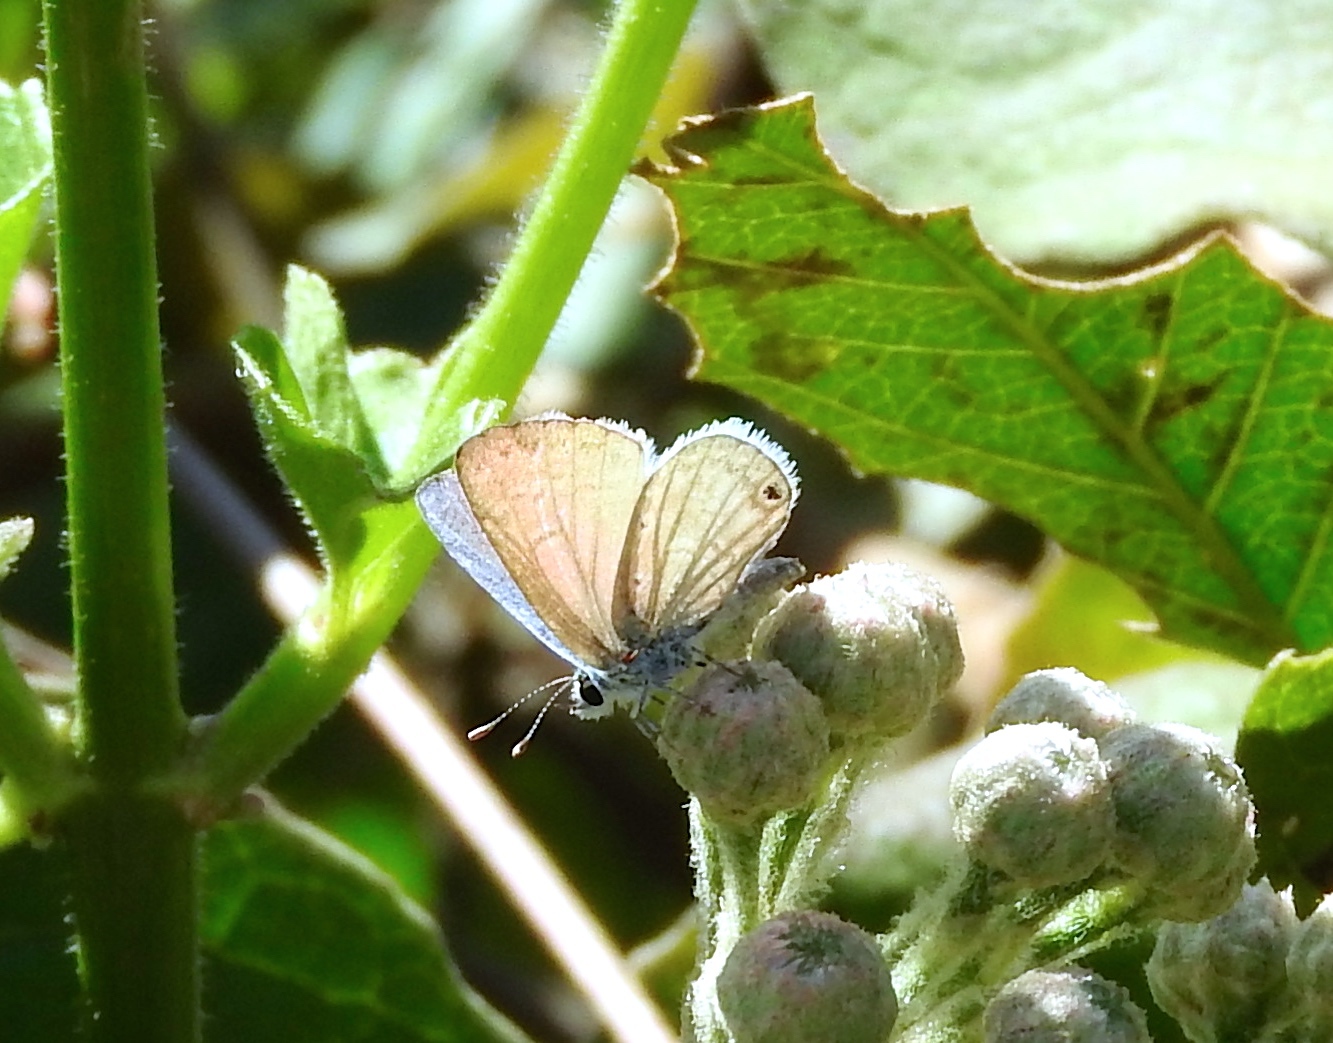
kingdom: Animalia
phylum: Arthropoda
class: Insecta
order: Lepidoptera
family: Lycaenidae
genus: Echinargus
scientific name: Echinargus isola
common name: Reakirt's blue
